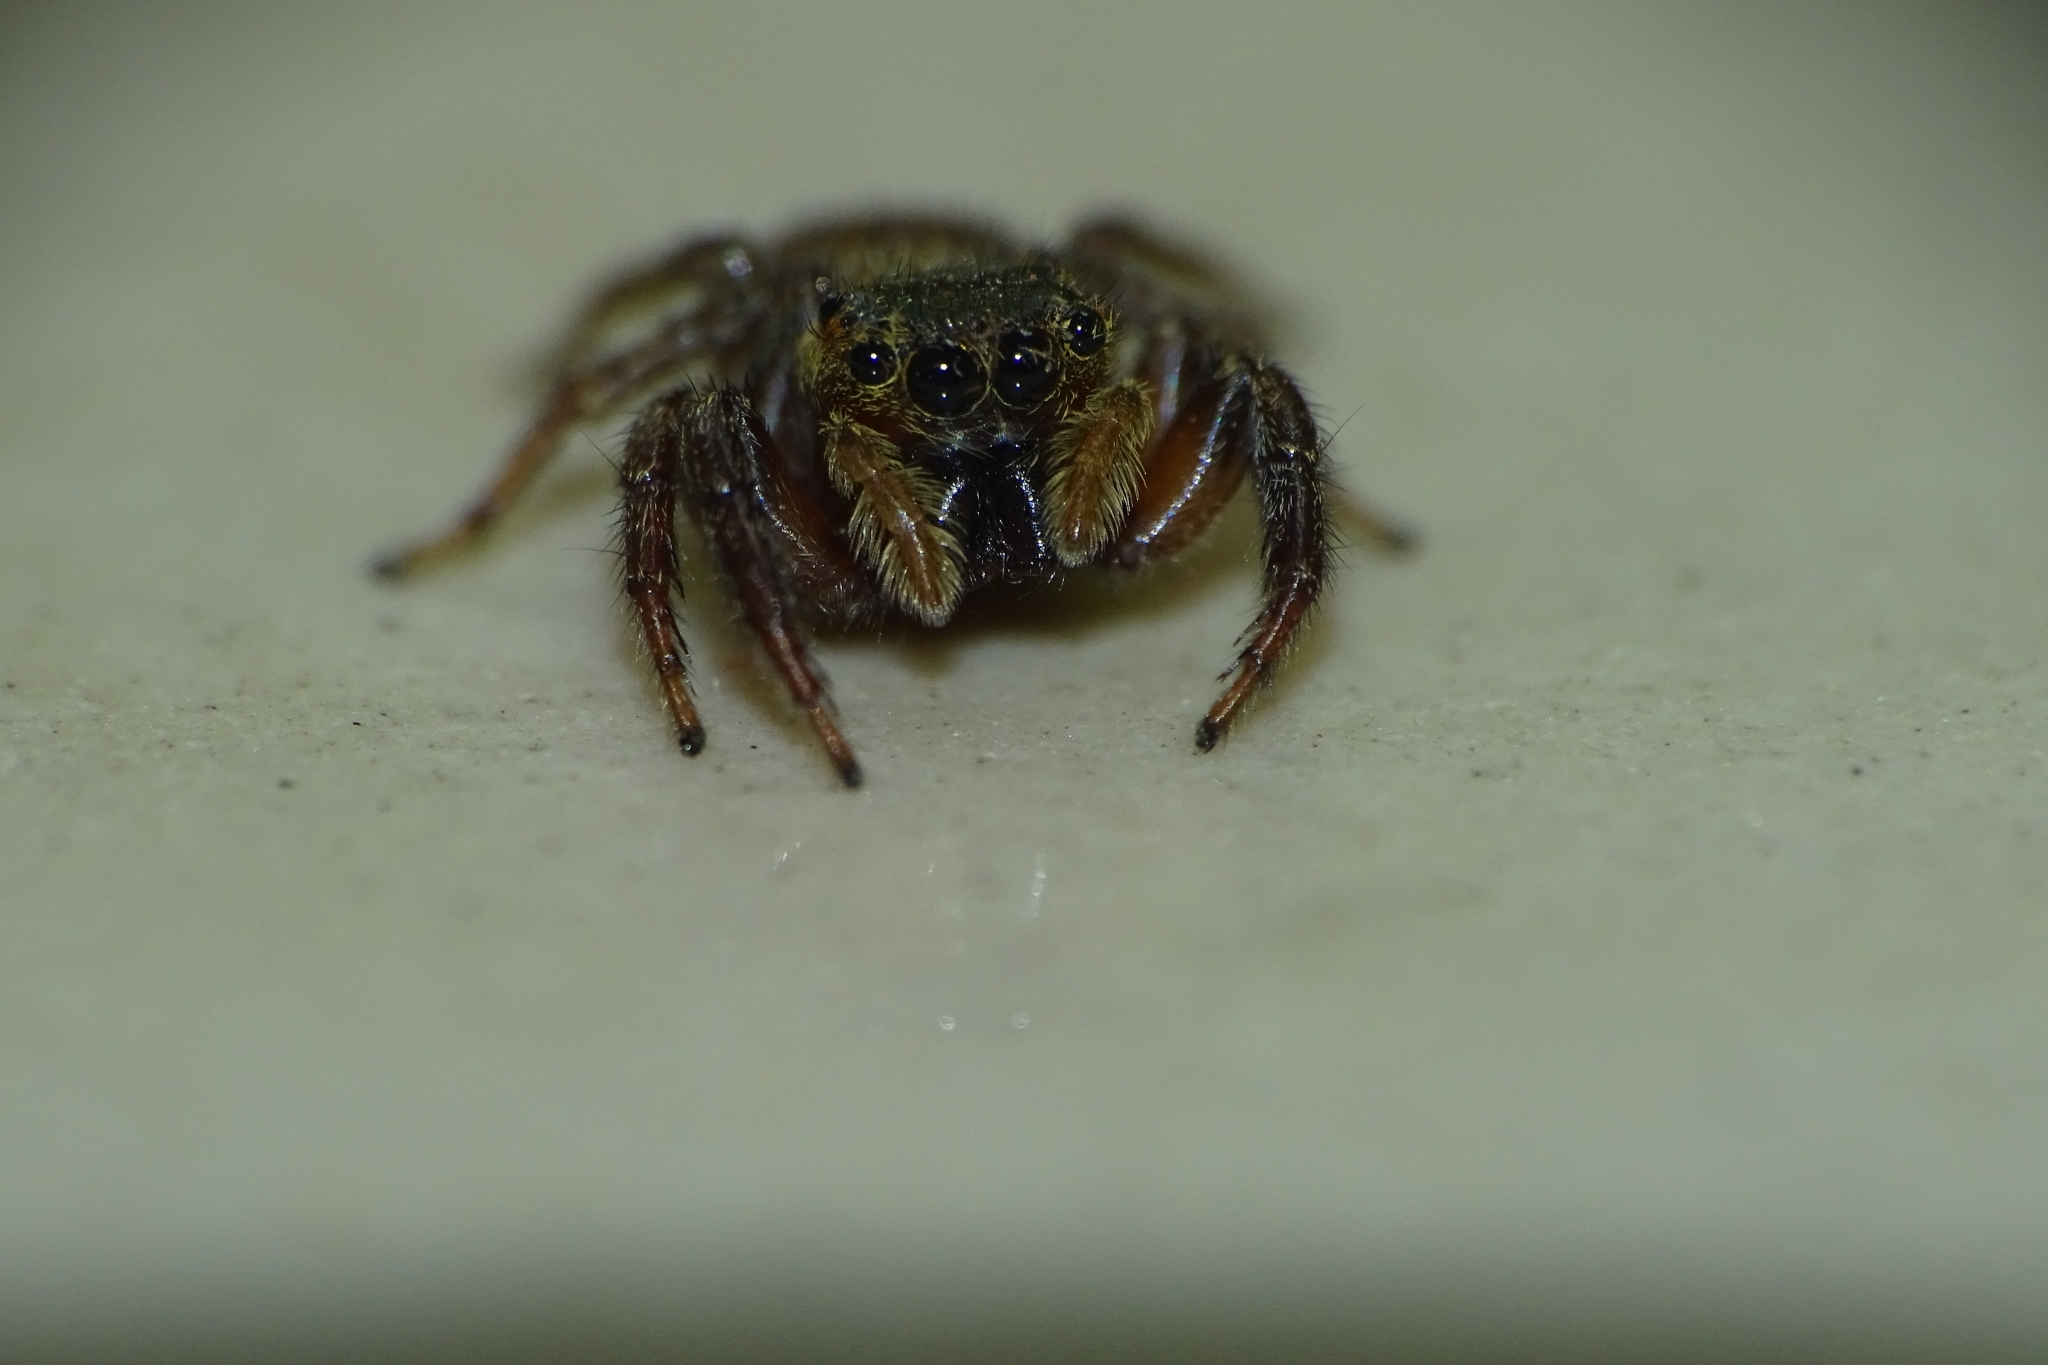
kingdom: Animalia
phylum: Arthropoda
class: Arachnida
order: Araneae
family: Salticidae
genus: Hasarius
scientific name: Hasarius adansoni
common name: Jumping spider
